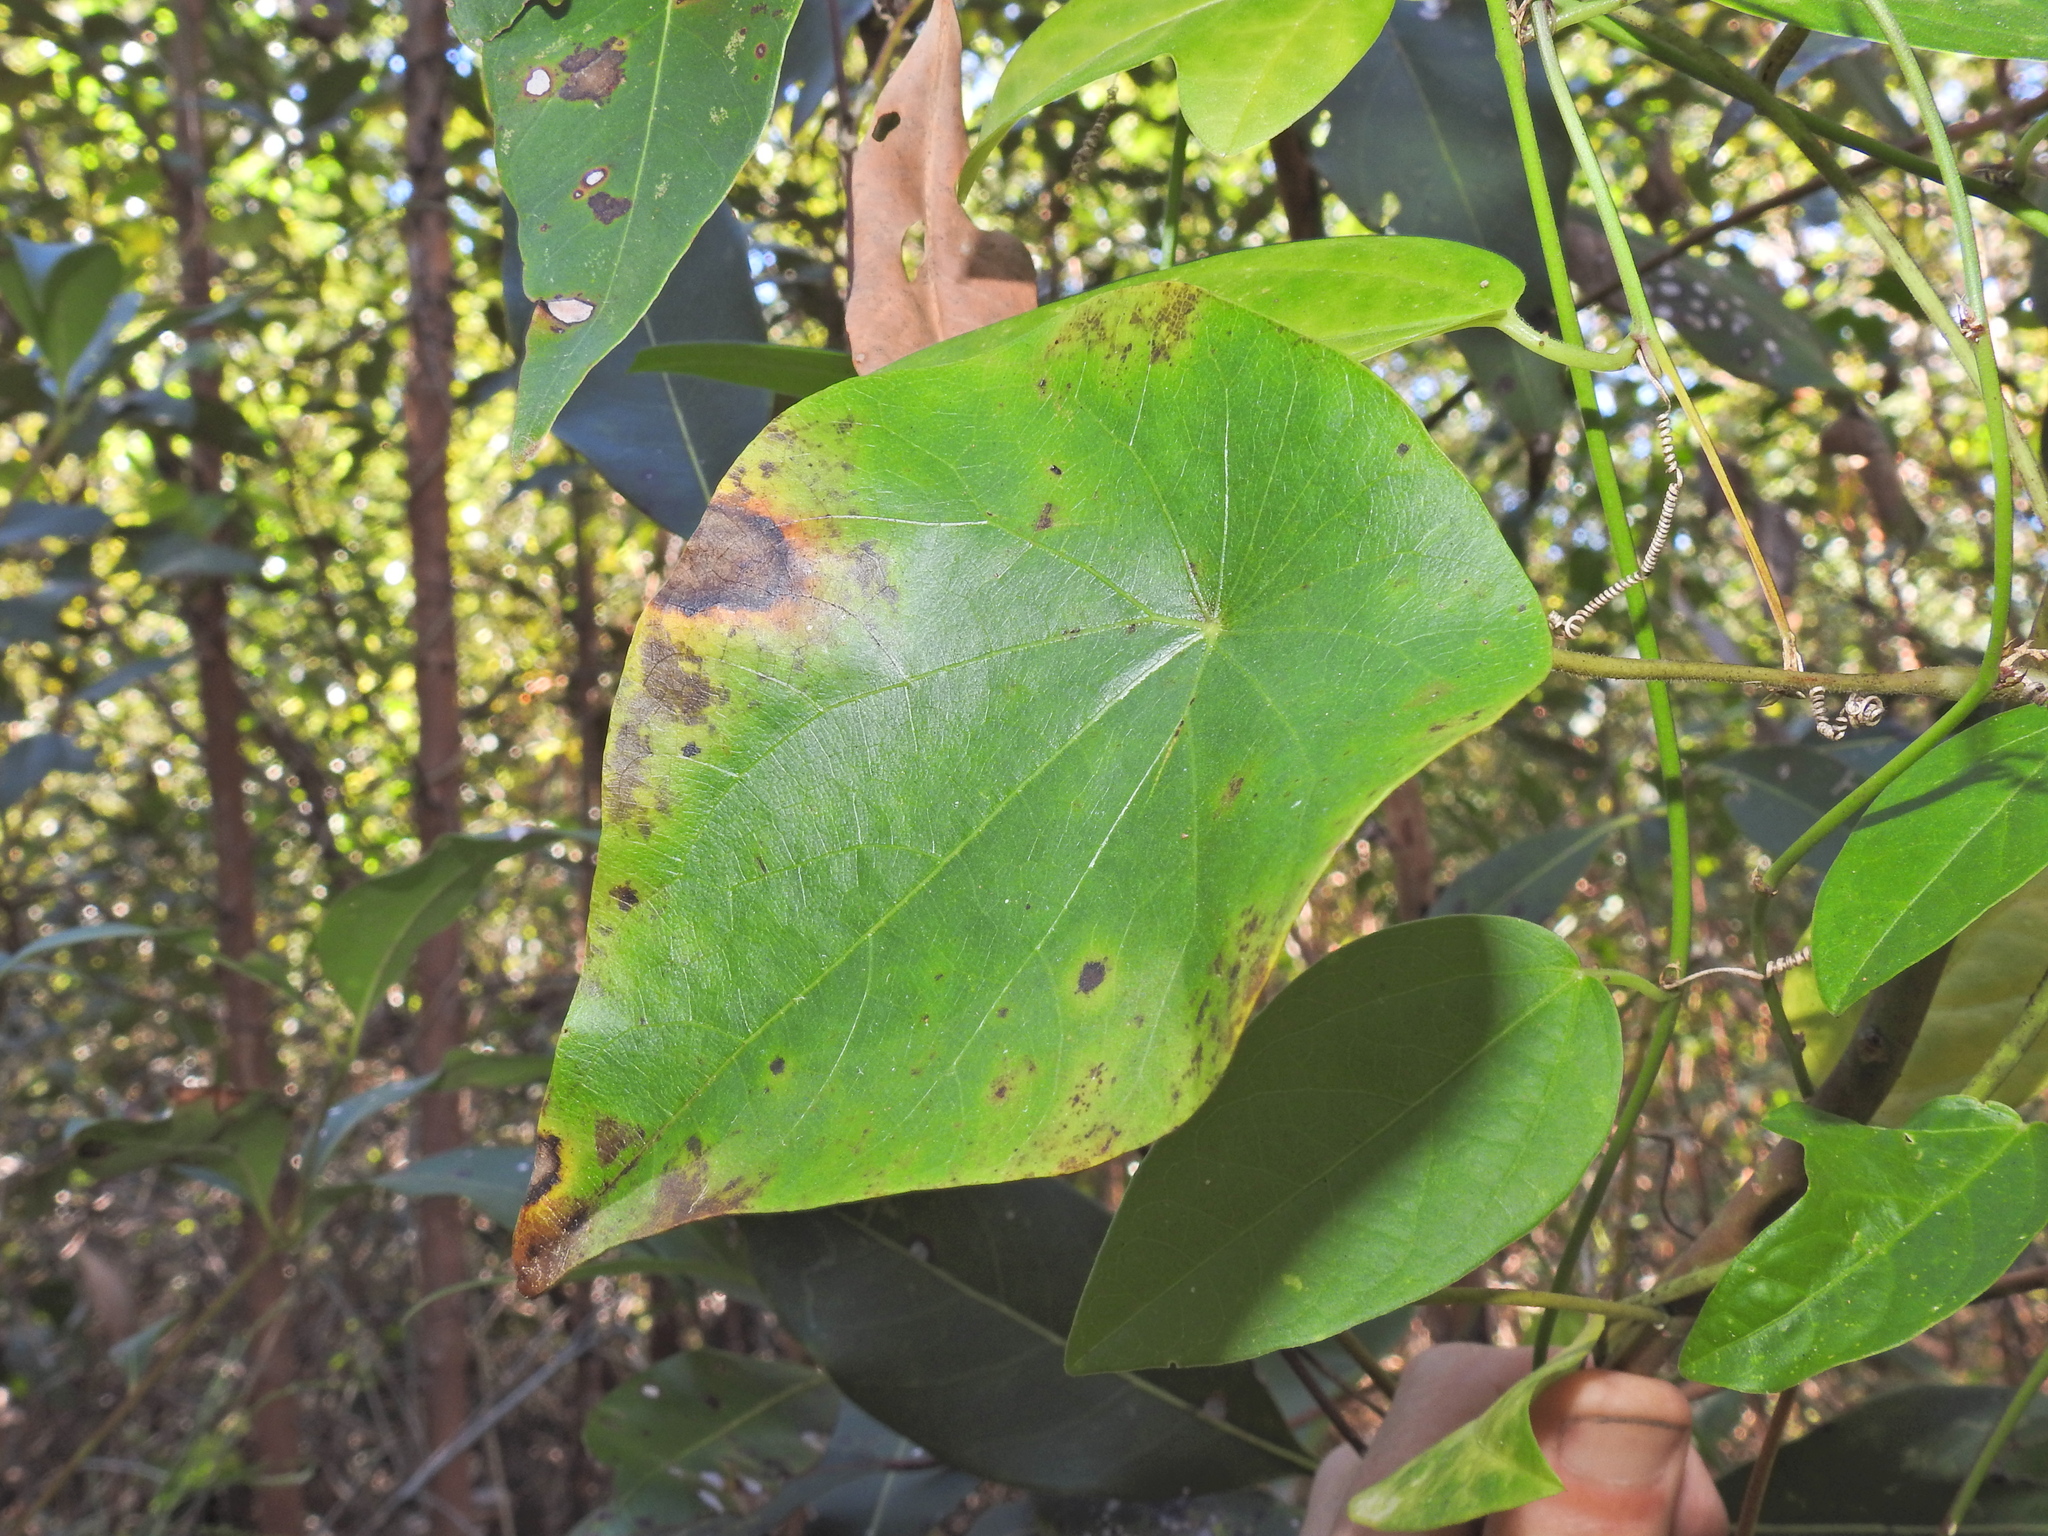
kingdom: Plantae
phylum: Tracheophyta
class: Magnoliopsida
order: Ranunculales
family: Menispermaceae
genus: Stephania
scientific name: Stephania japonica
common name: Snake vine
